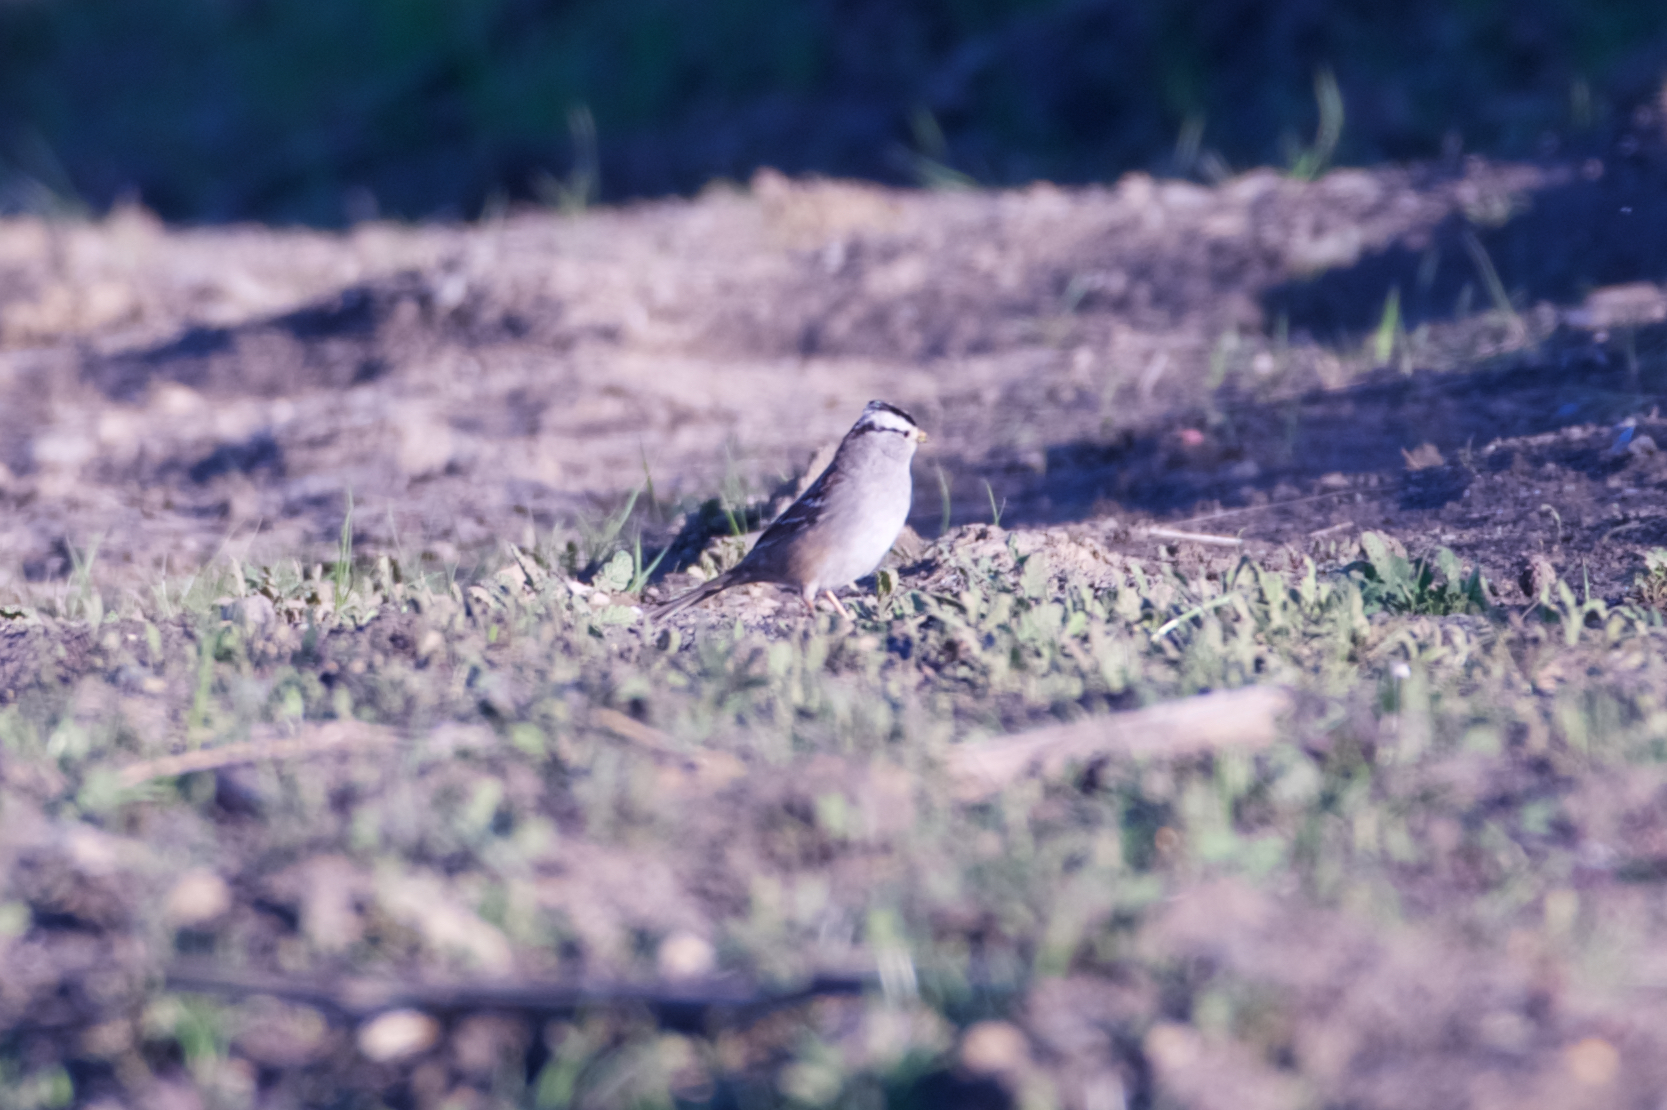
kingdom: Animalia
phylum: Chordata
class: Aves
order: Passeriformes
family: Passerellidae
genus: Zonotrichia
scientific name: Zonotrichia leucophrys
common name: White-crowned sparrow
